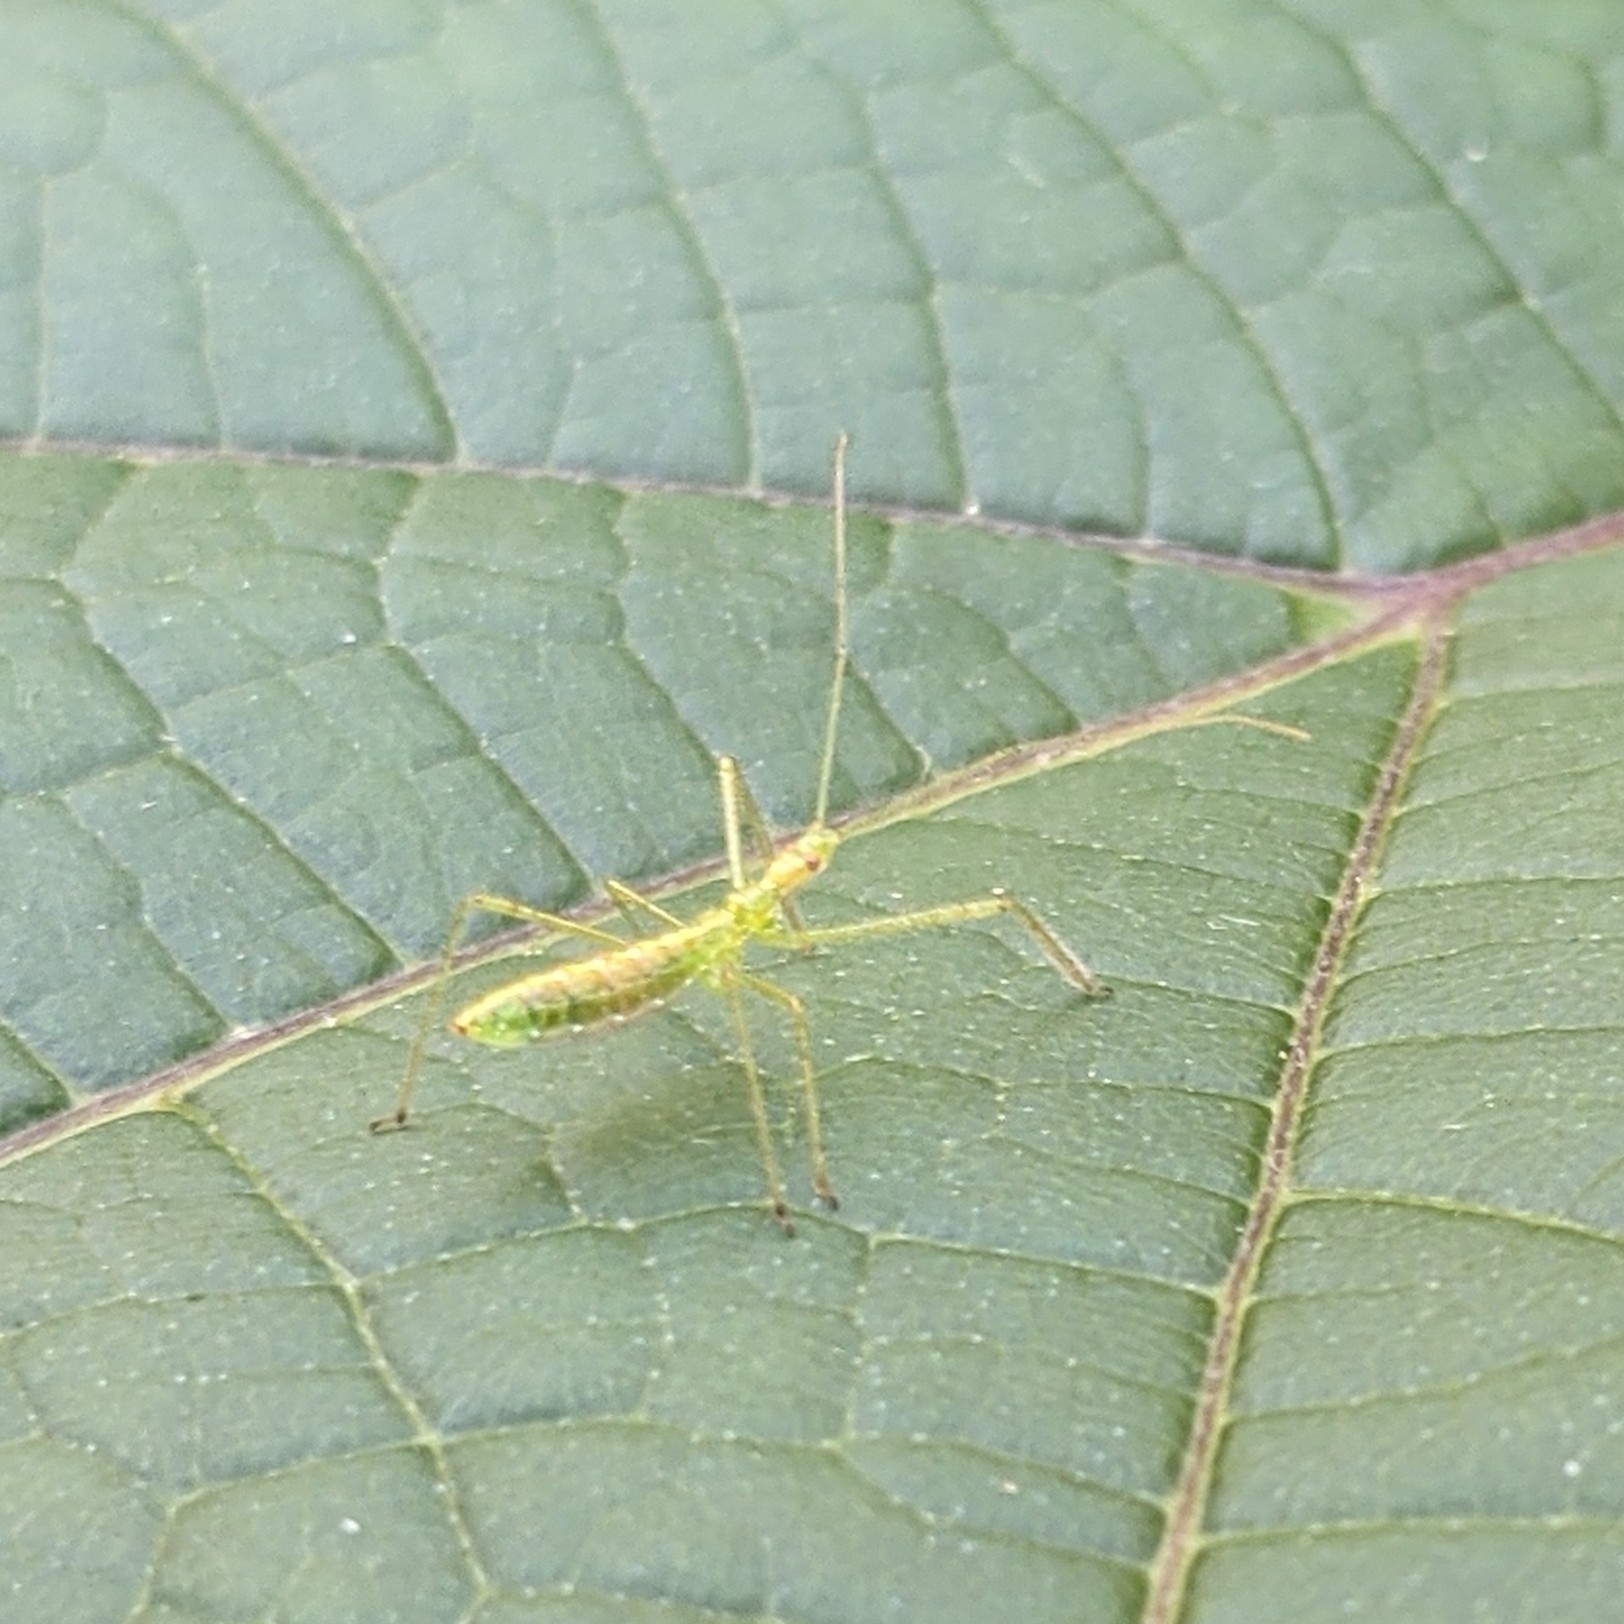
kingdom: Animalia
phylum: Arthropoda
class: Insecta
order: Hemiptera
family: Reduviidae
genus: Zelus
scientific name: Zelus luridus
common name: Pale green assassin bug
